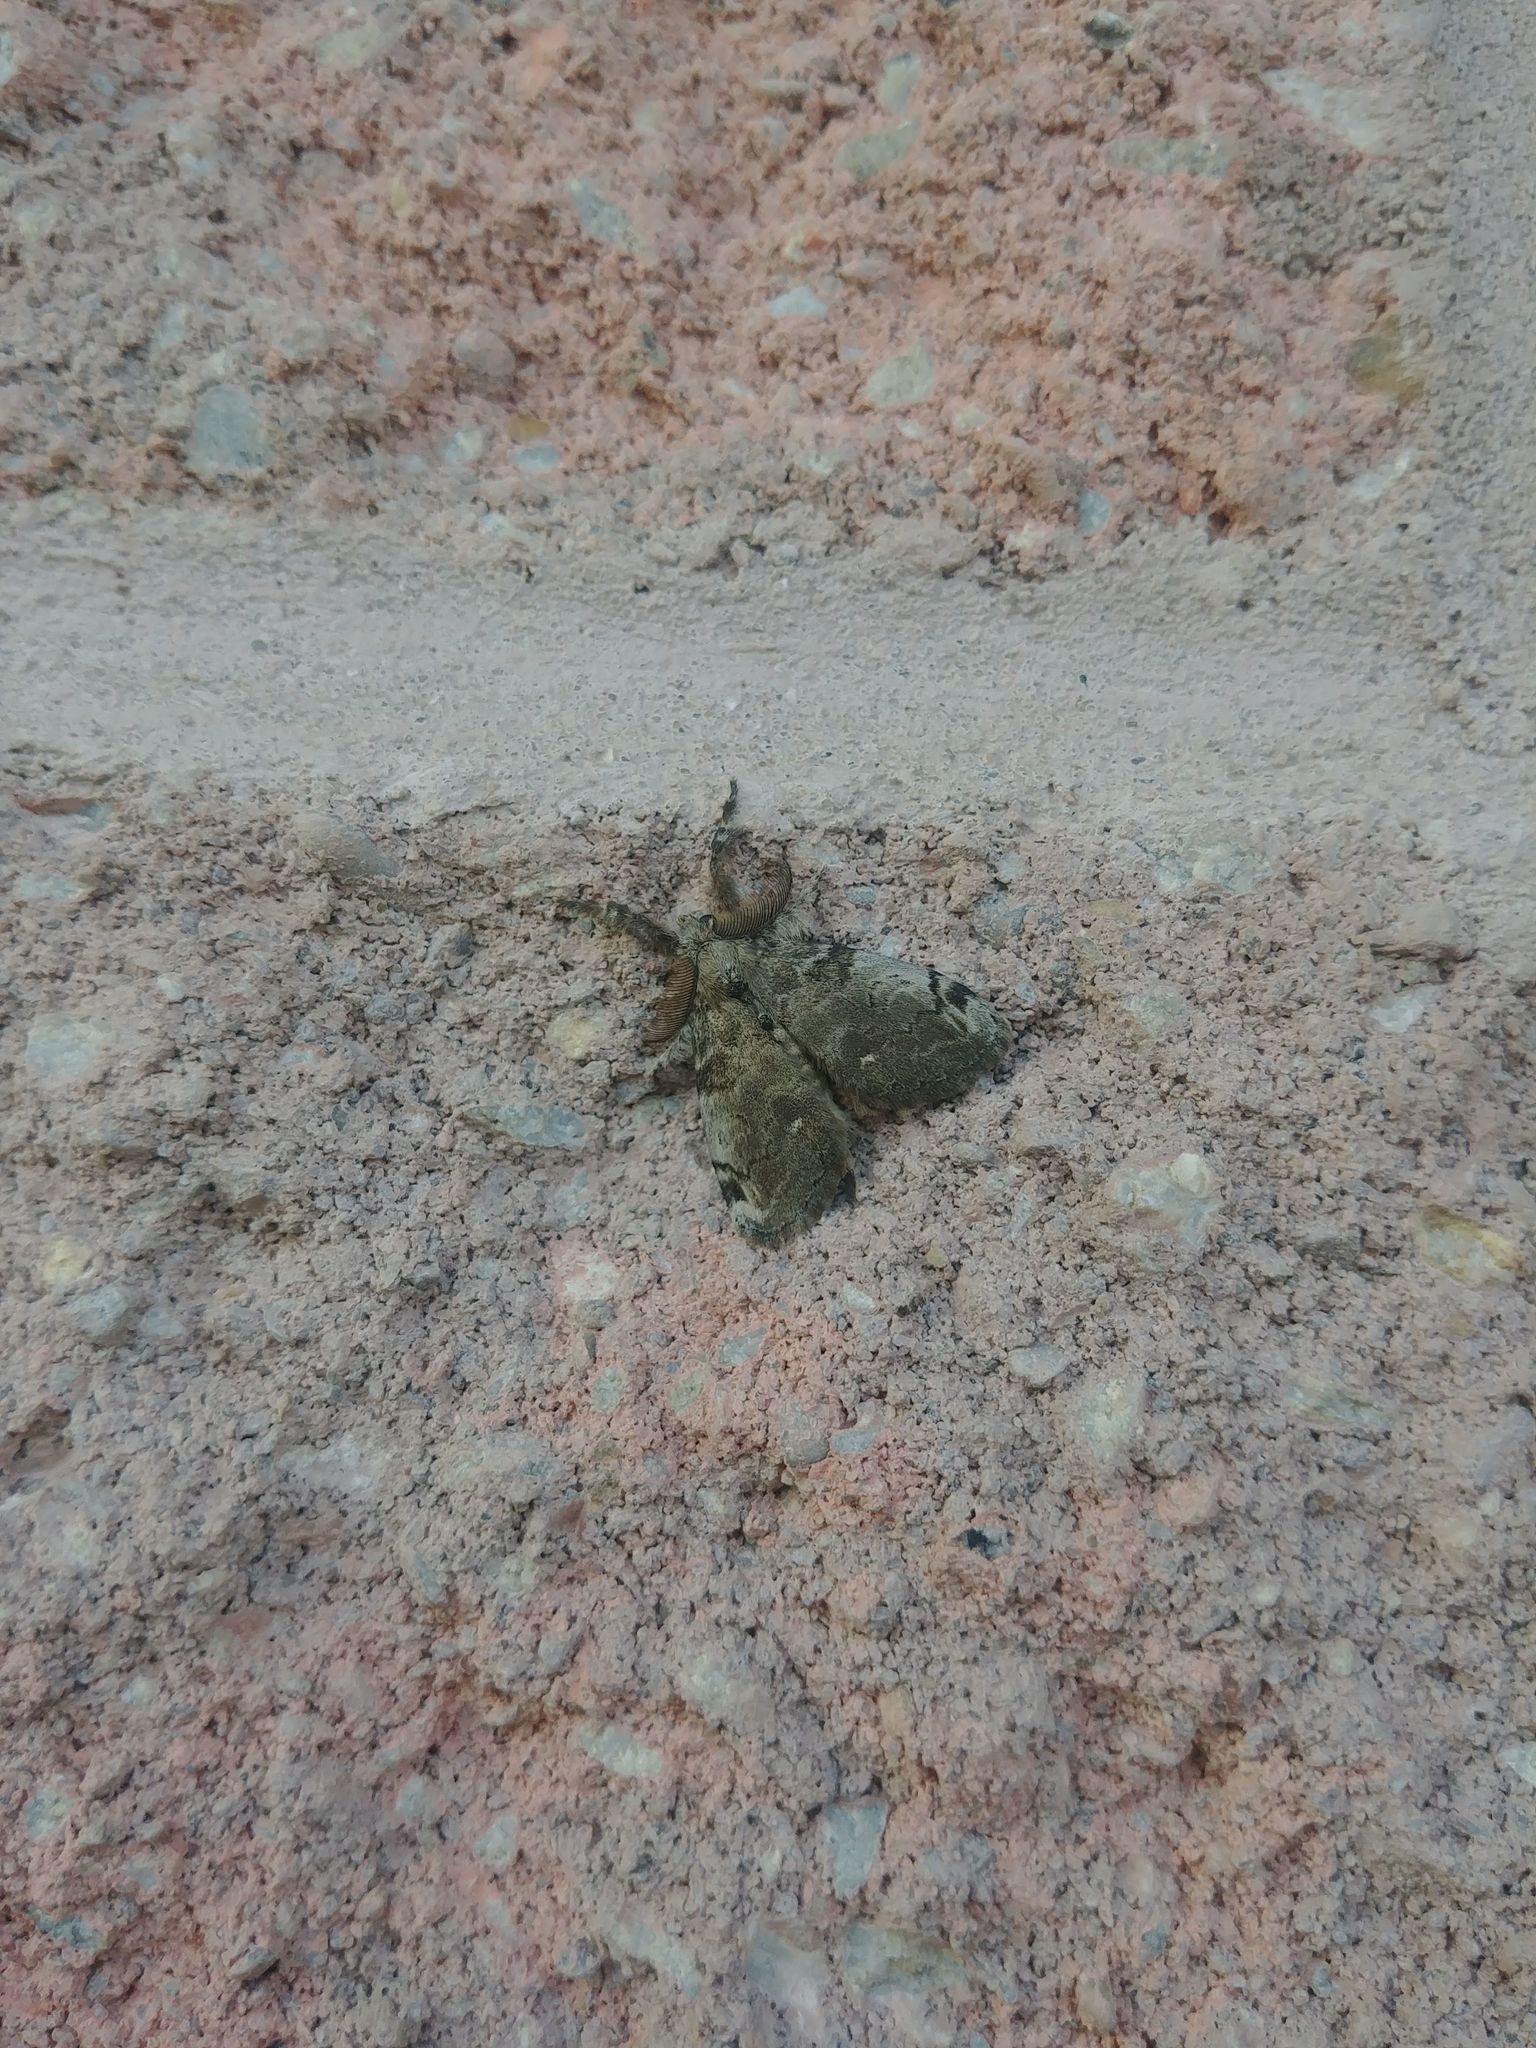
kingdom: Animalia
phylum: Arthropoda
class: Insecta
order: Lepidoptera
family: Erebidae
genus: Orgyia
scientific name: Orgyia leucostigma
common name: White-marked tussock moth
